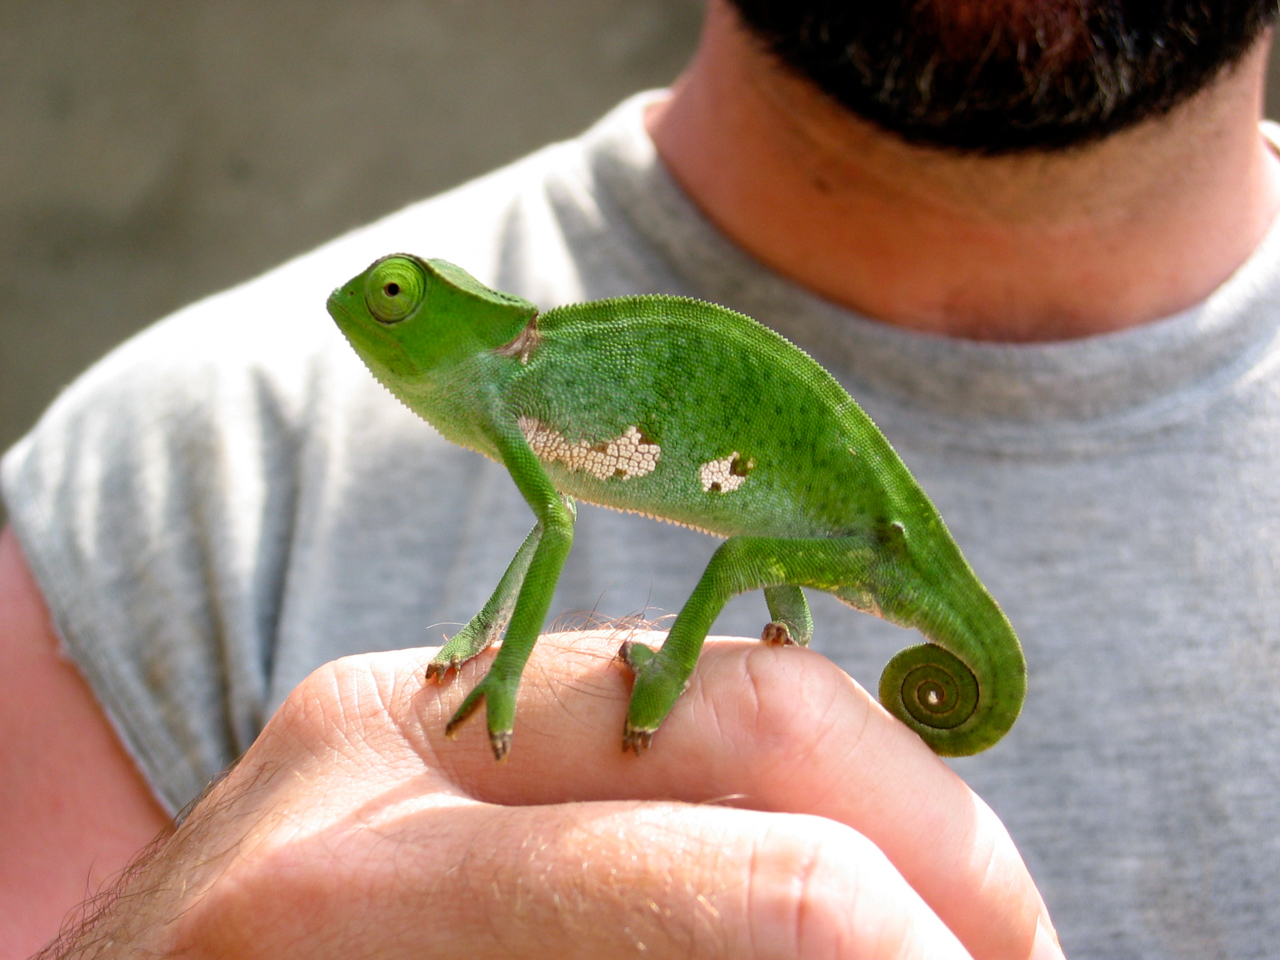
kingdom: Animalia
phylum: Chordata
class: Squamata
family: Chamaeleonidae
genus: Chamaeleo
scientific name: Chamaeleo gracilis
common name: Graceful chameleon
